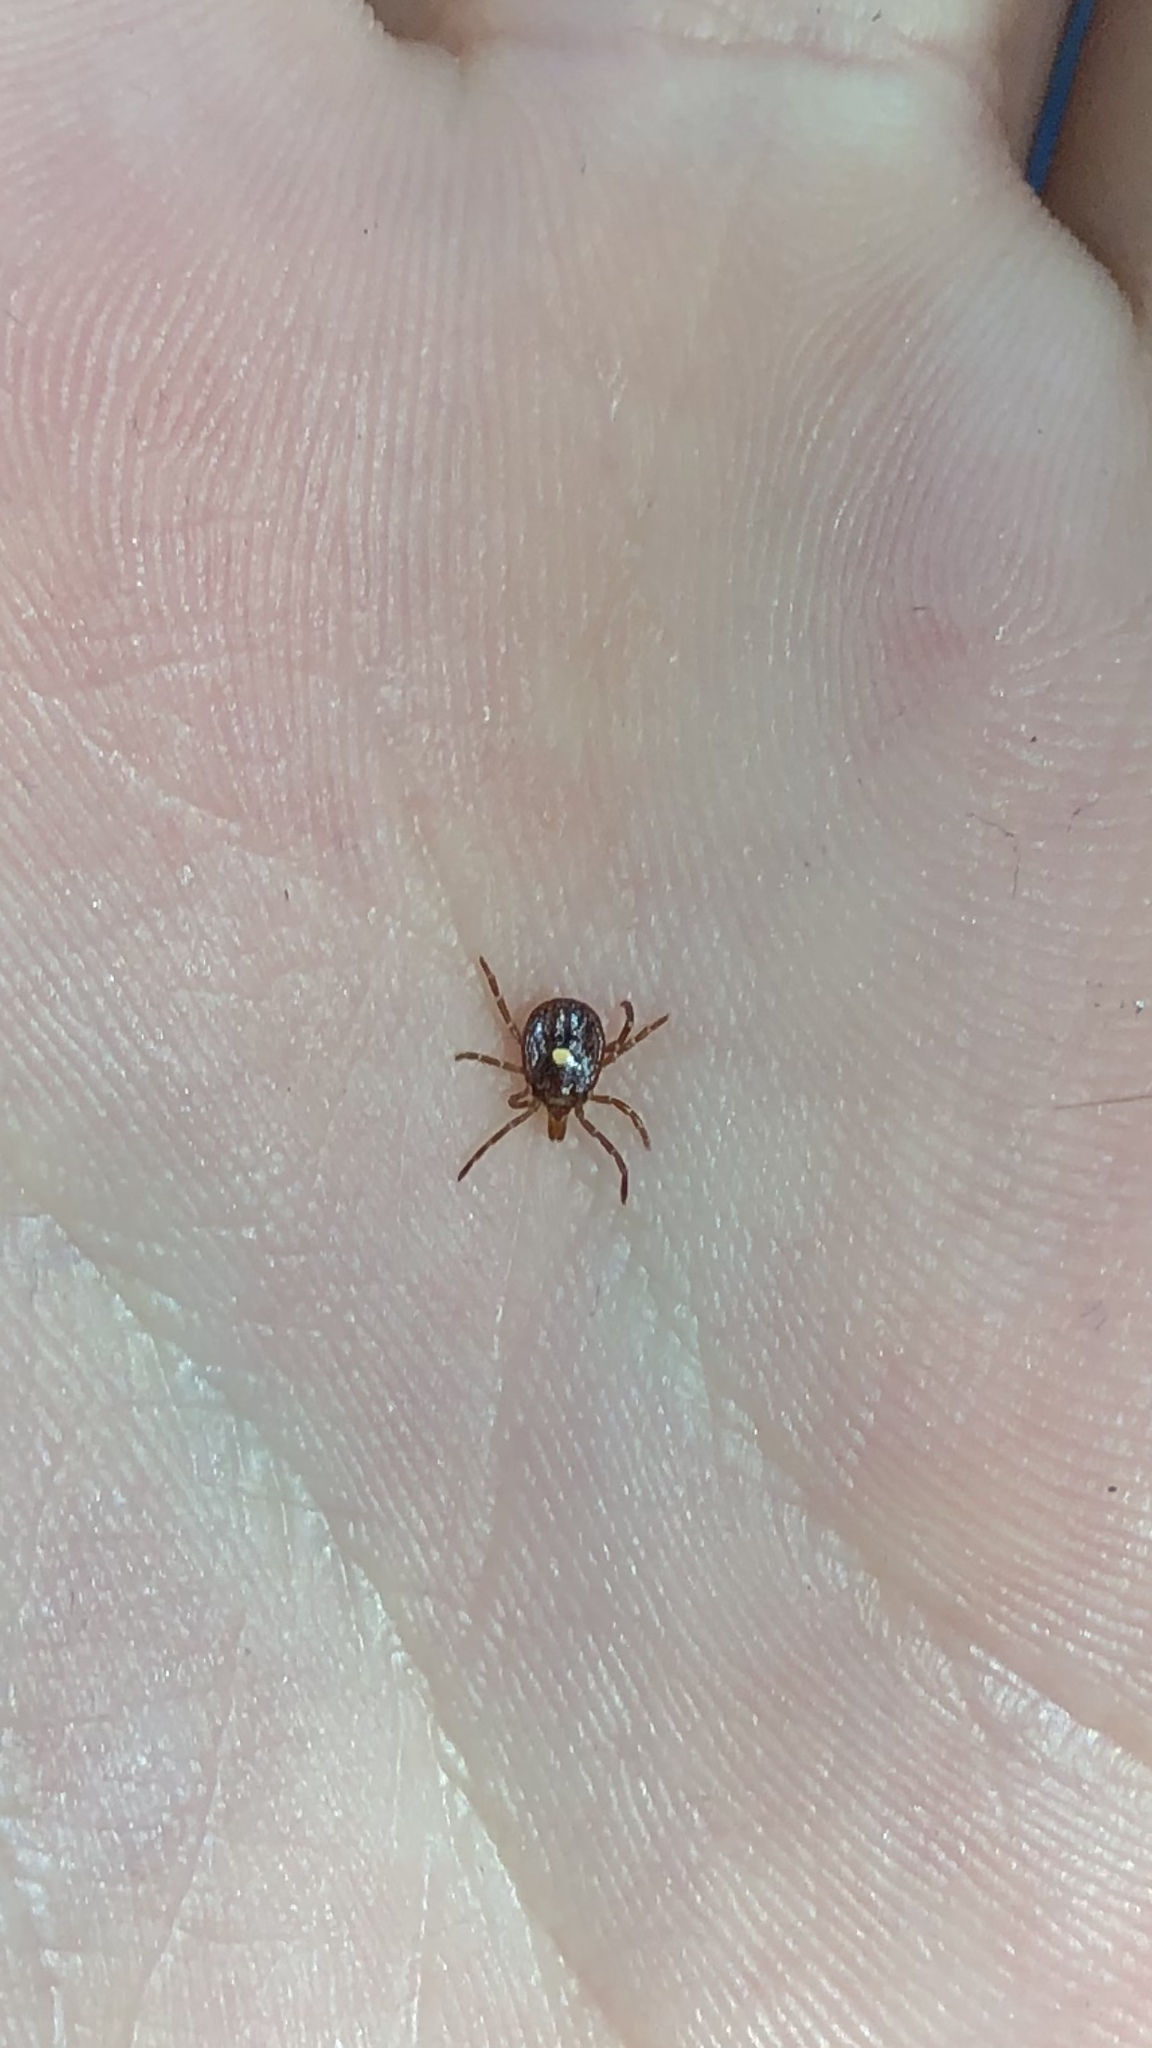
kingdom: Animalia
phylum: Arthropoda
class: Arachnida
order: Ixodida
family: Ixodidae
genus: Amblyomma
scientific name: Amblyomma americanum
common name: Lone star tick
